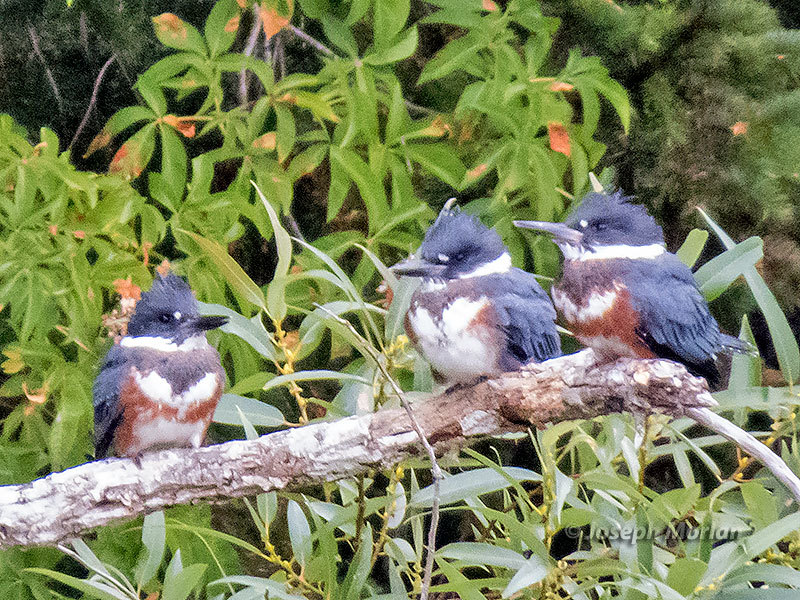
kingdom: Animalia
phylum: Chordata
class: Aves
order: Coraciiformes
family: Alcedinidae
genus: Megaceryle
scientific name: Megaceryle alcyon
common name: Belted kingfisher
